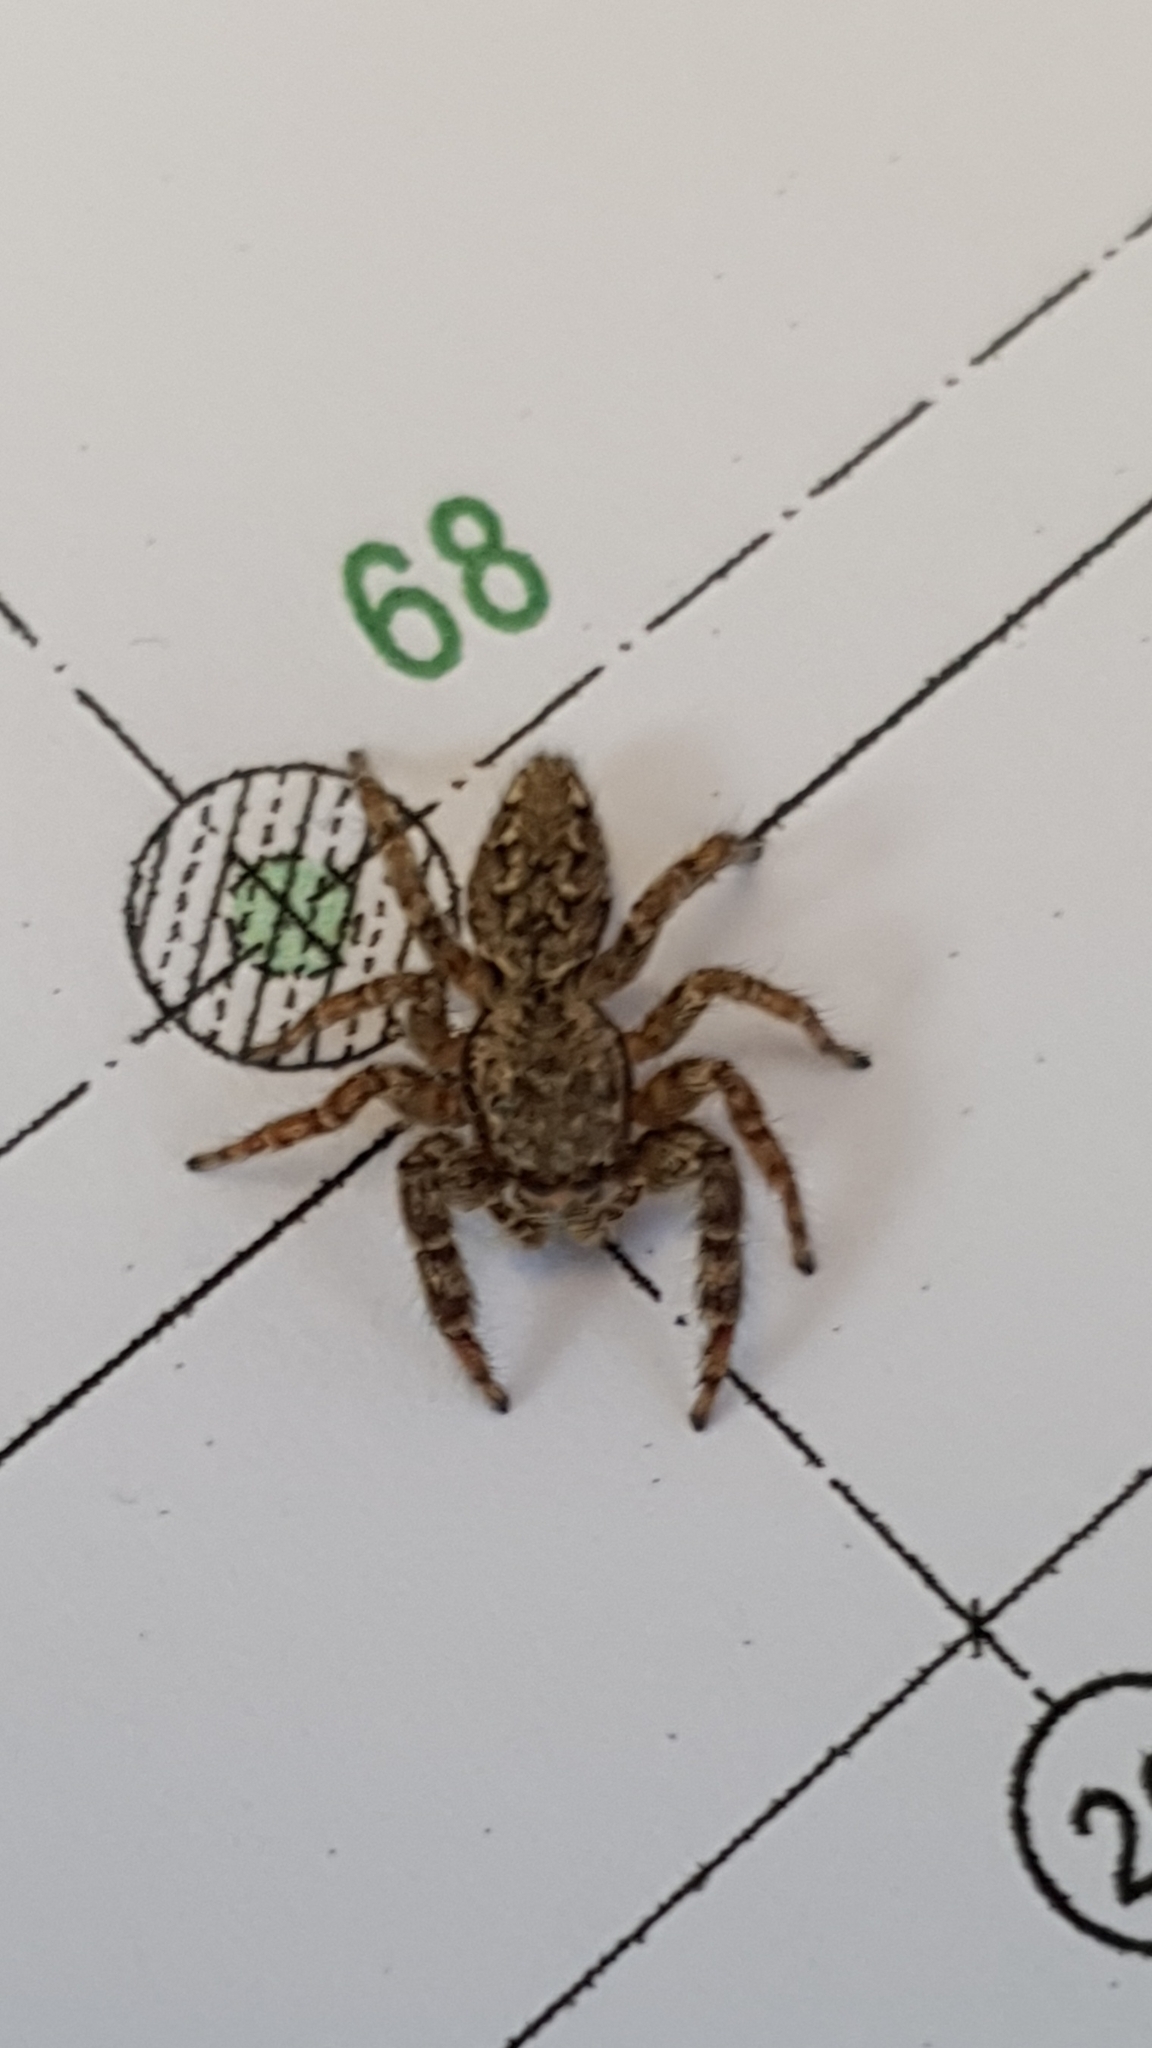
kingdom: Animalia
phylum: Arthropoda
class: Arachnida
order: Araneae
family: Salticidae
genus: Marpissa
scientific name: Marpissa muscosa
